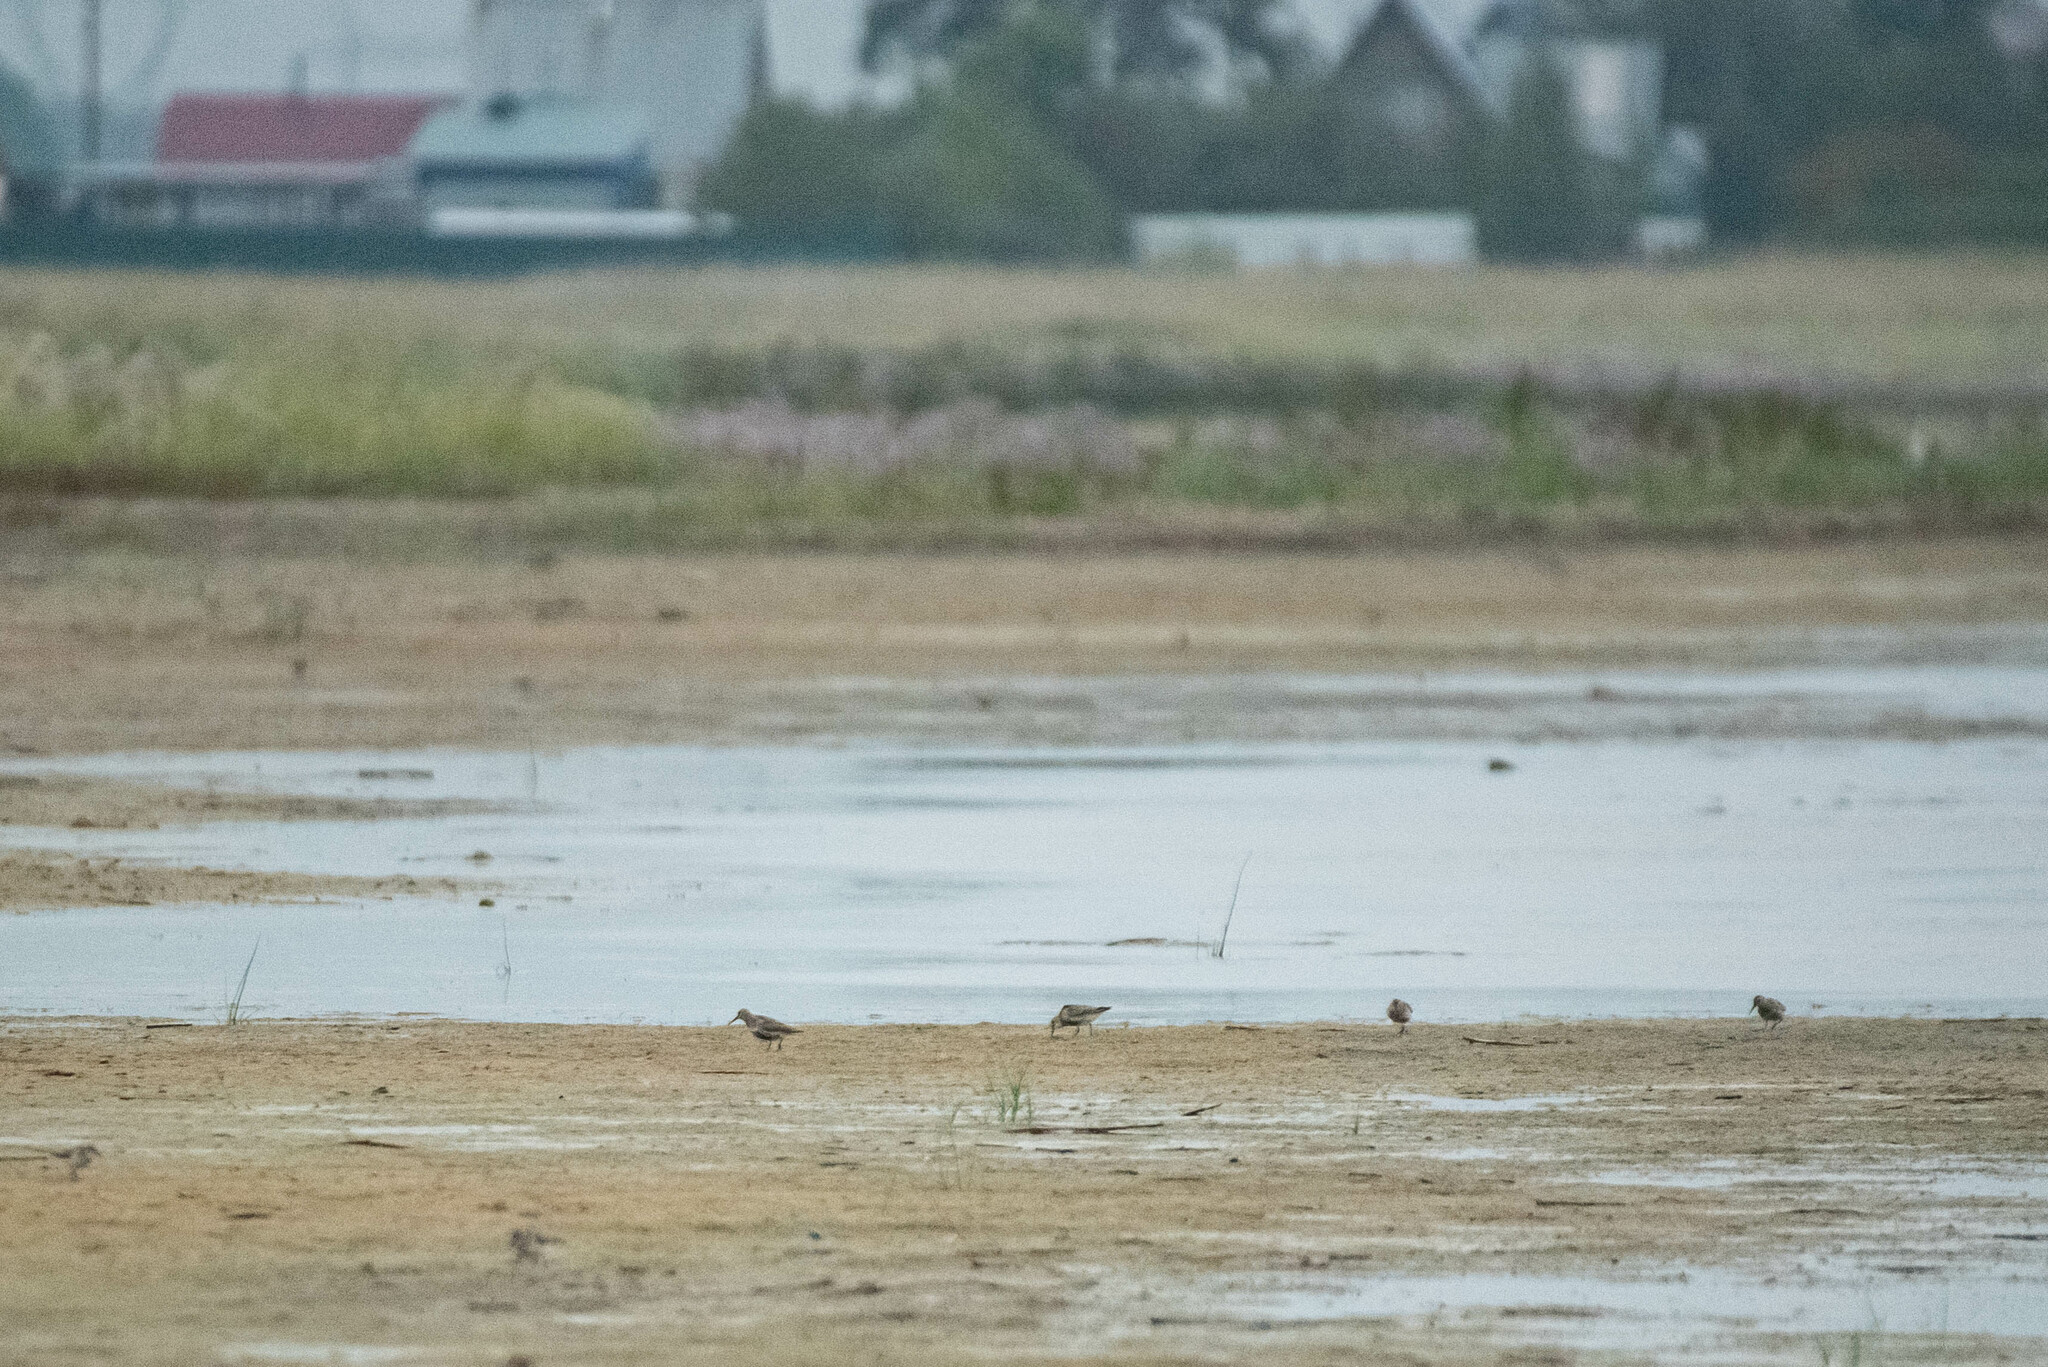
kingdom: Animalia
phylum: Chordata
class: Aves
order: Charadriiformes
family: Scolopacidae
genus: Calidris
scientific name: Calidris alpina
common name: Dunlin
